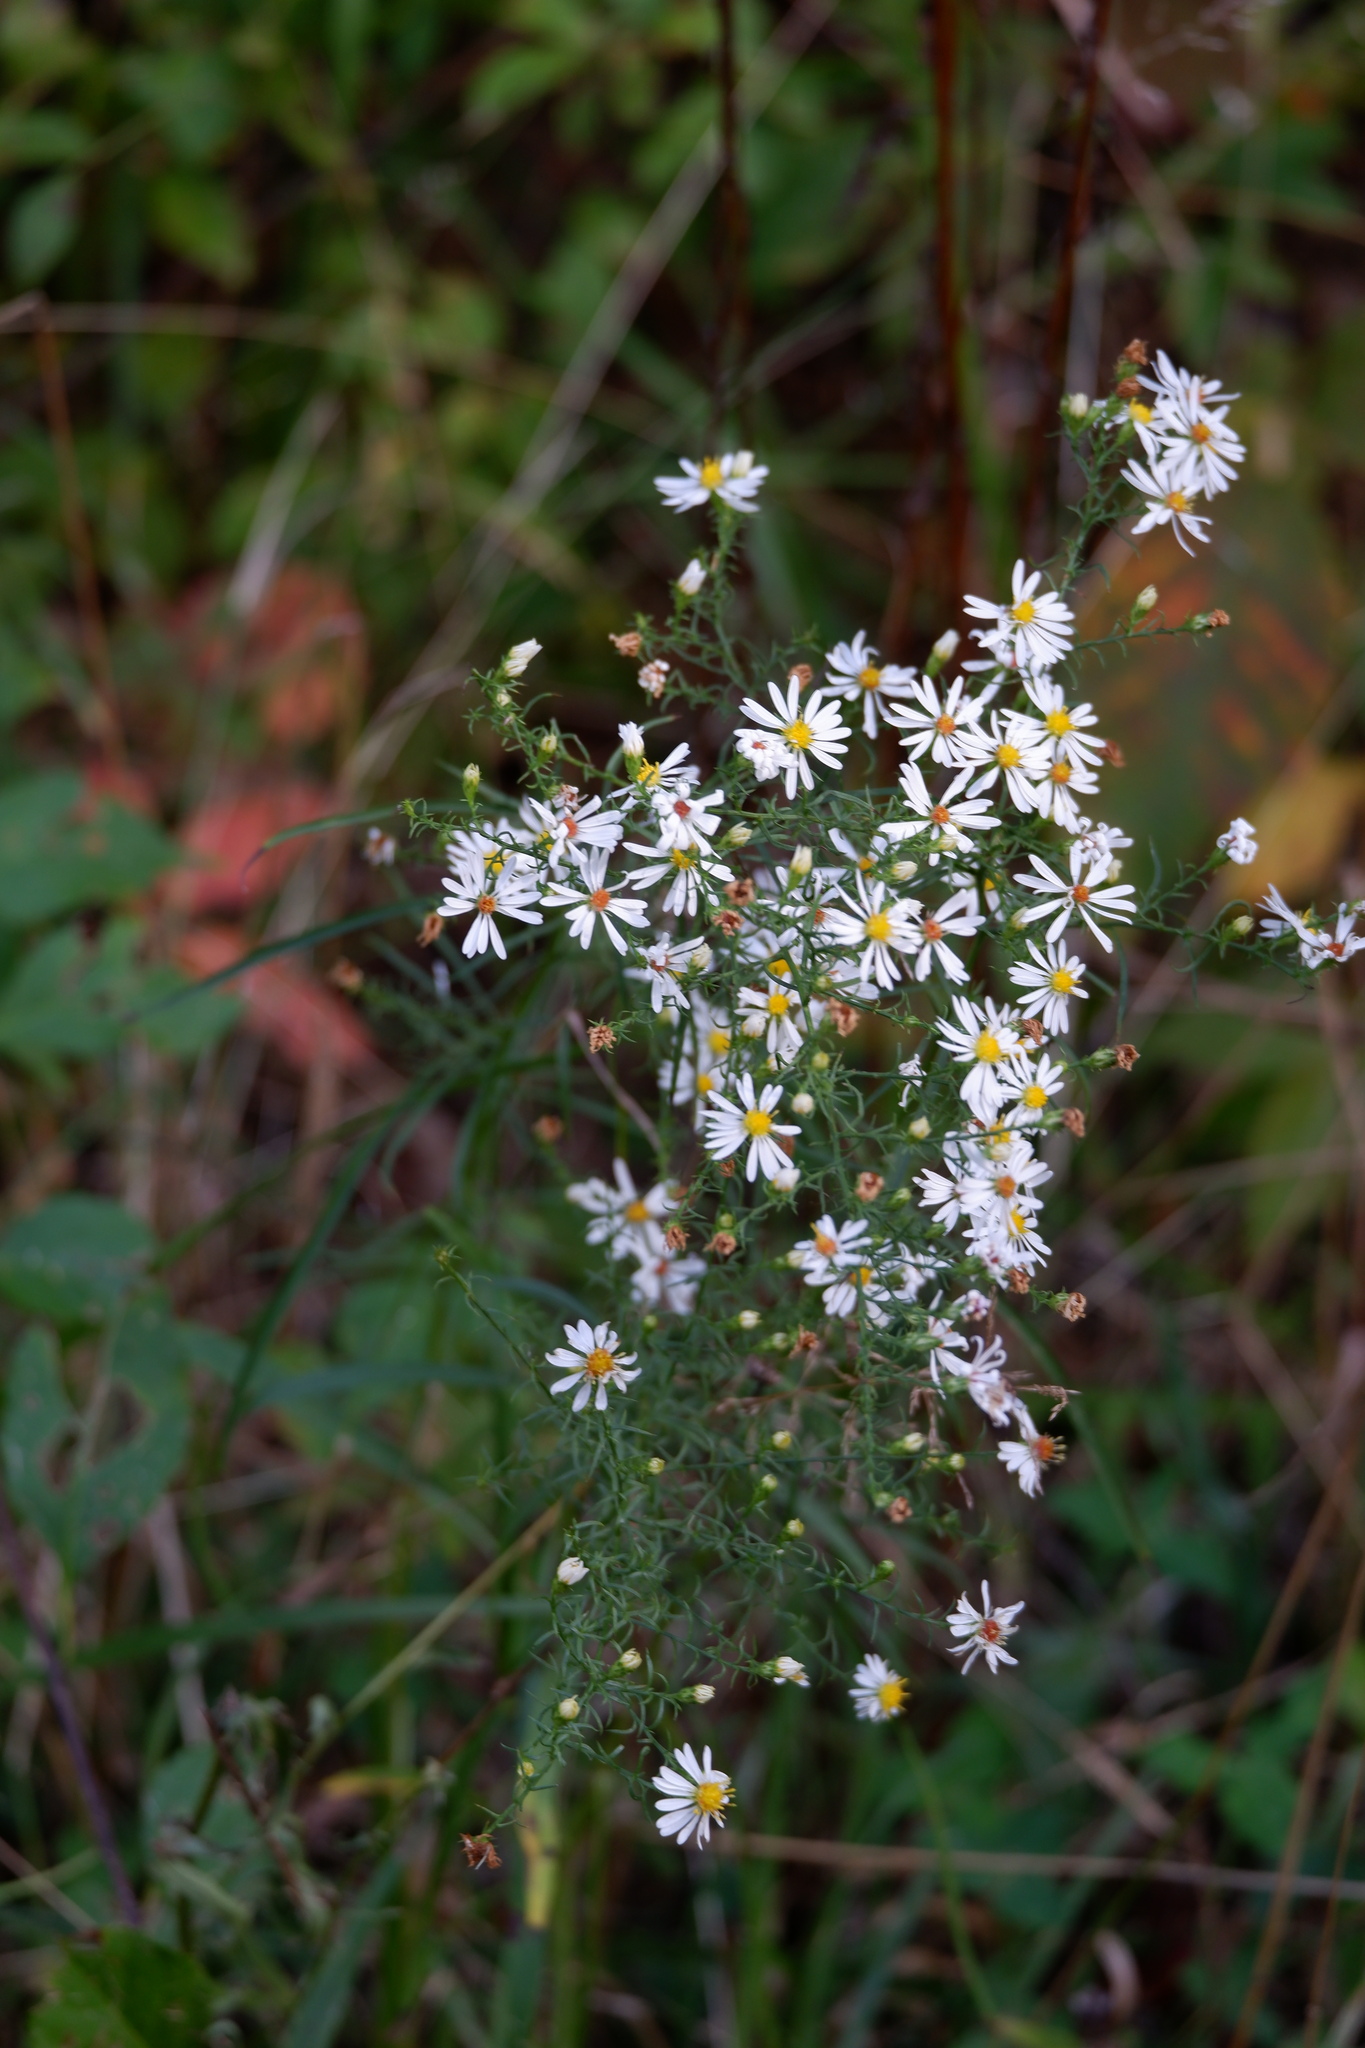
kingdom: Plantae
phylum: Tracheophyta
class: Magnoliopsida
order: Asterales
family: Asteraceae
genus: Symphyotrichum
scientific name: Symphyotrichum racemosum
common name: Small white aster
